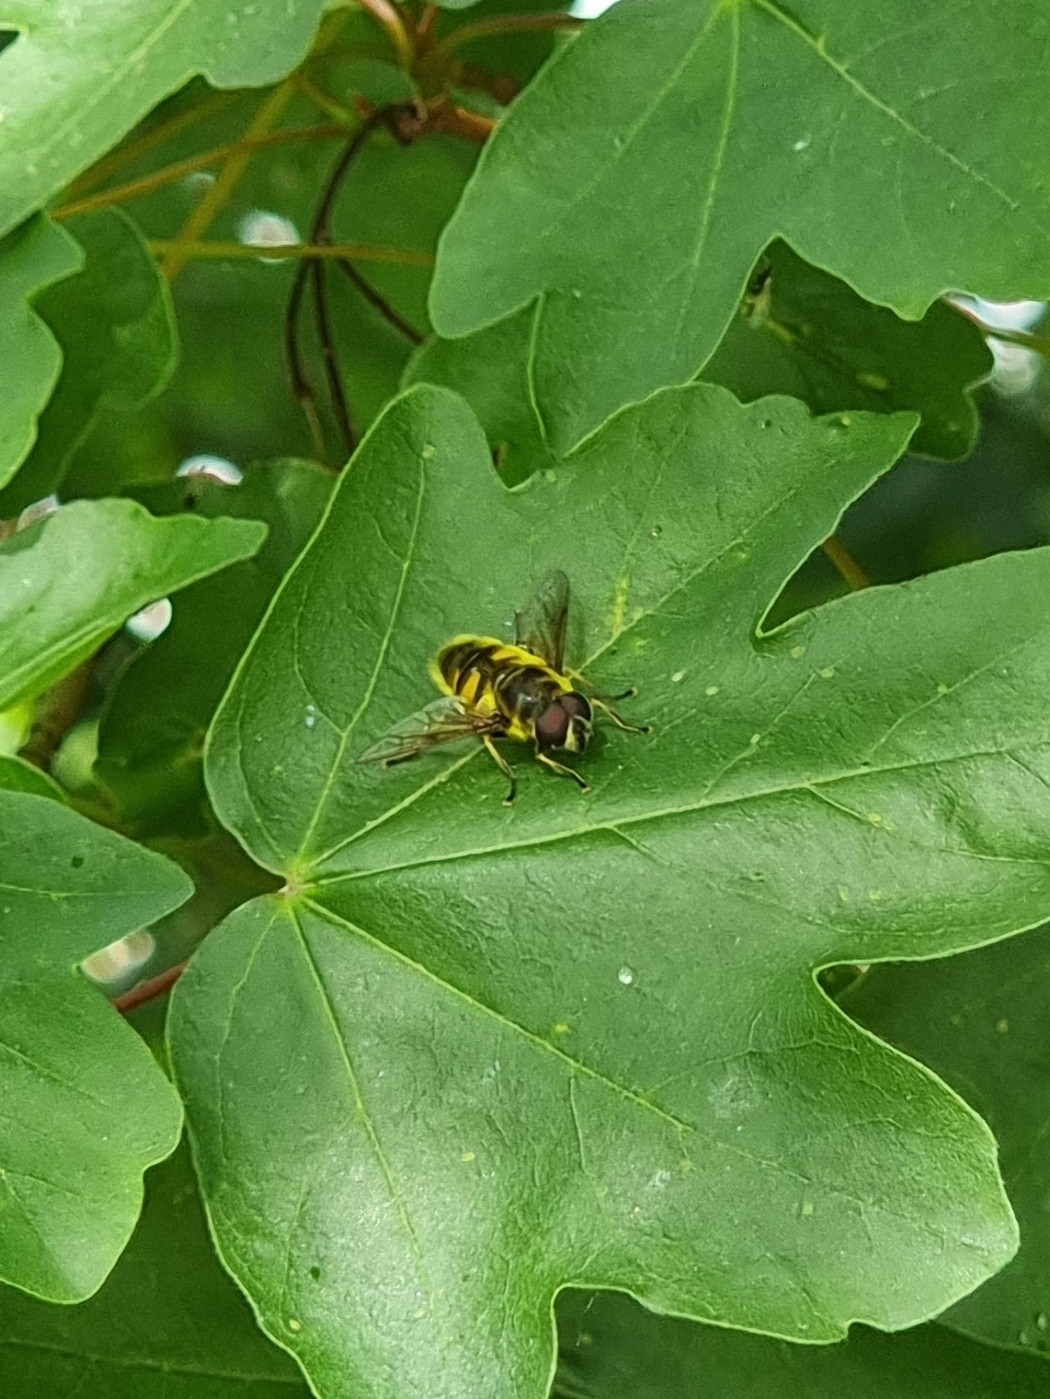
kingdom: Animalia
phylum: Arthropoda
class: Insecta
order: Diptera
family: Syrphidae
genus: Myathropa
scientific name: Myathropa florea
